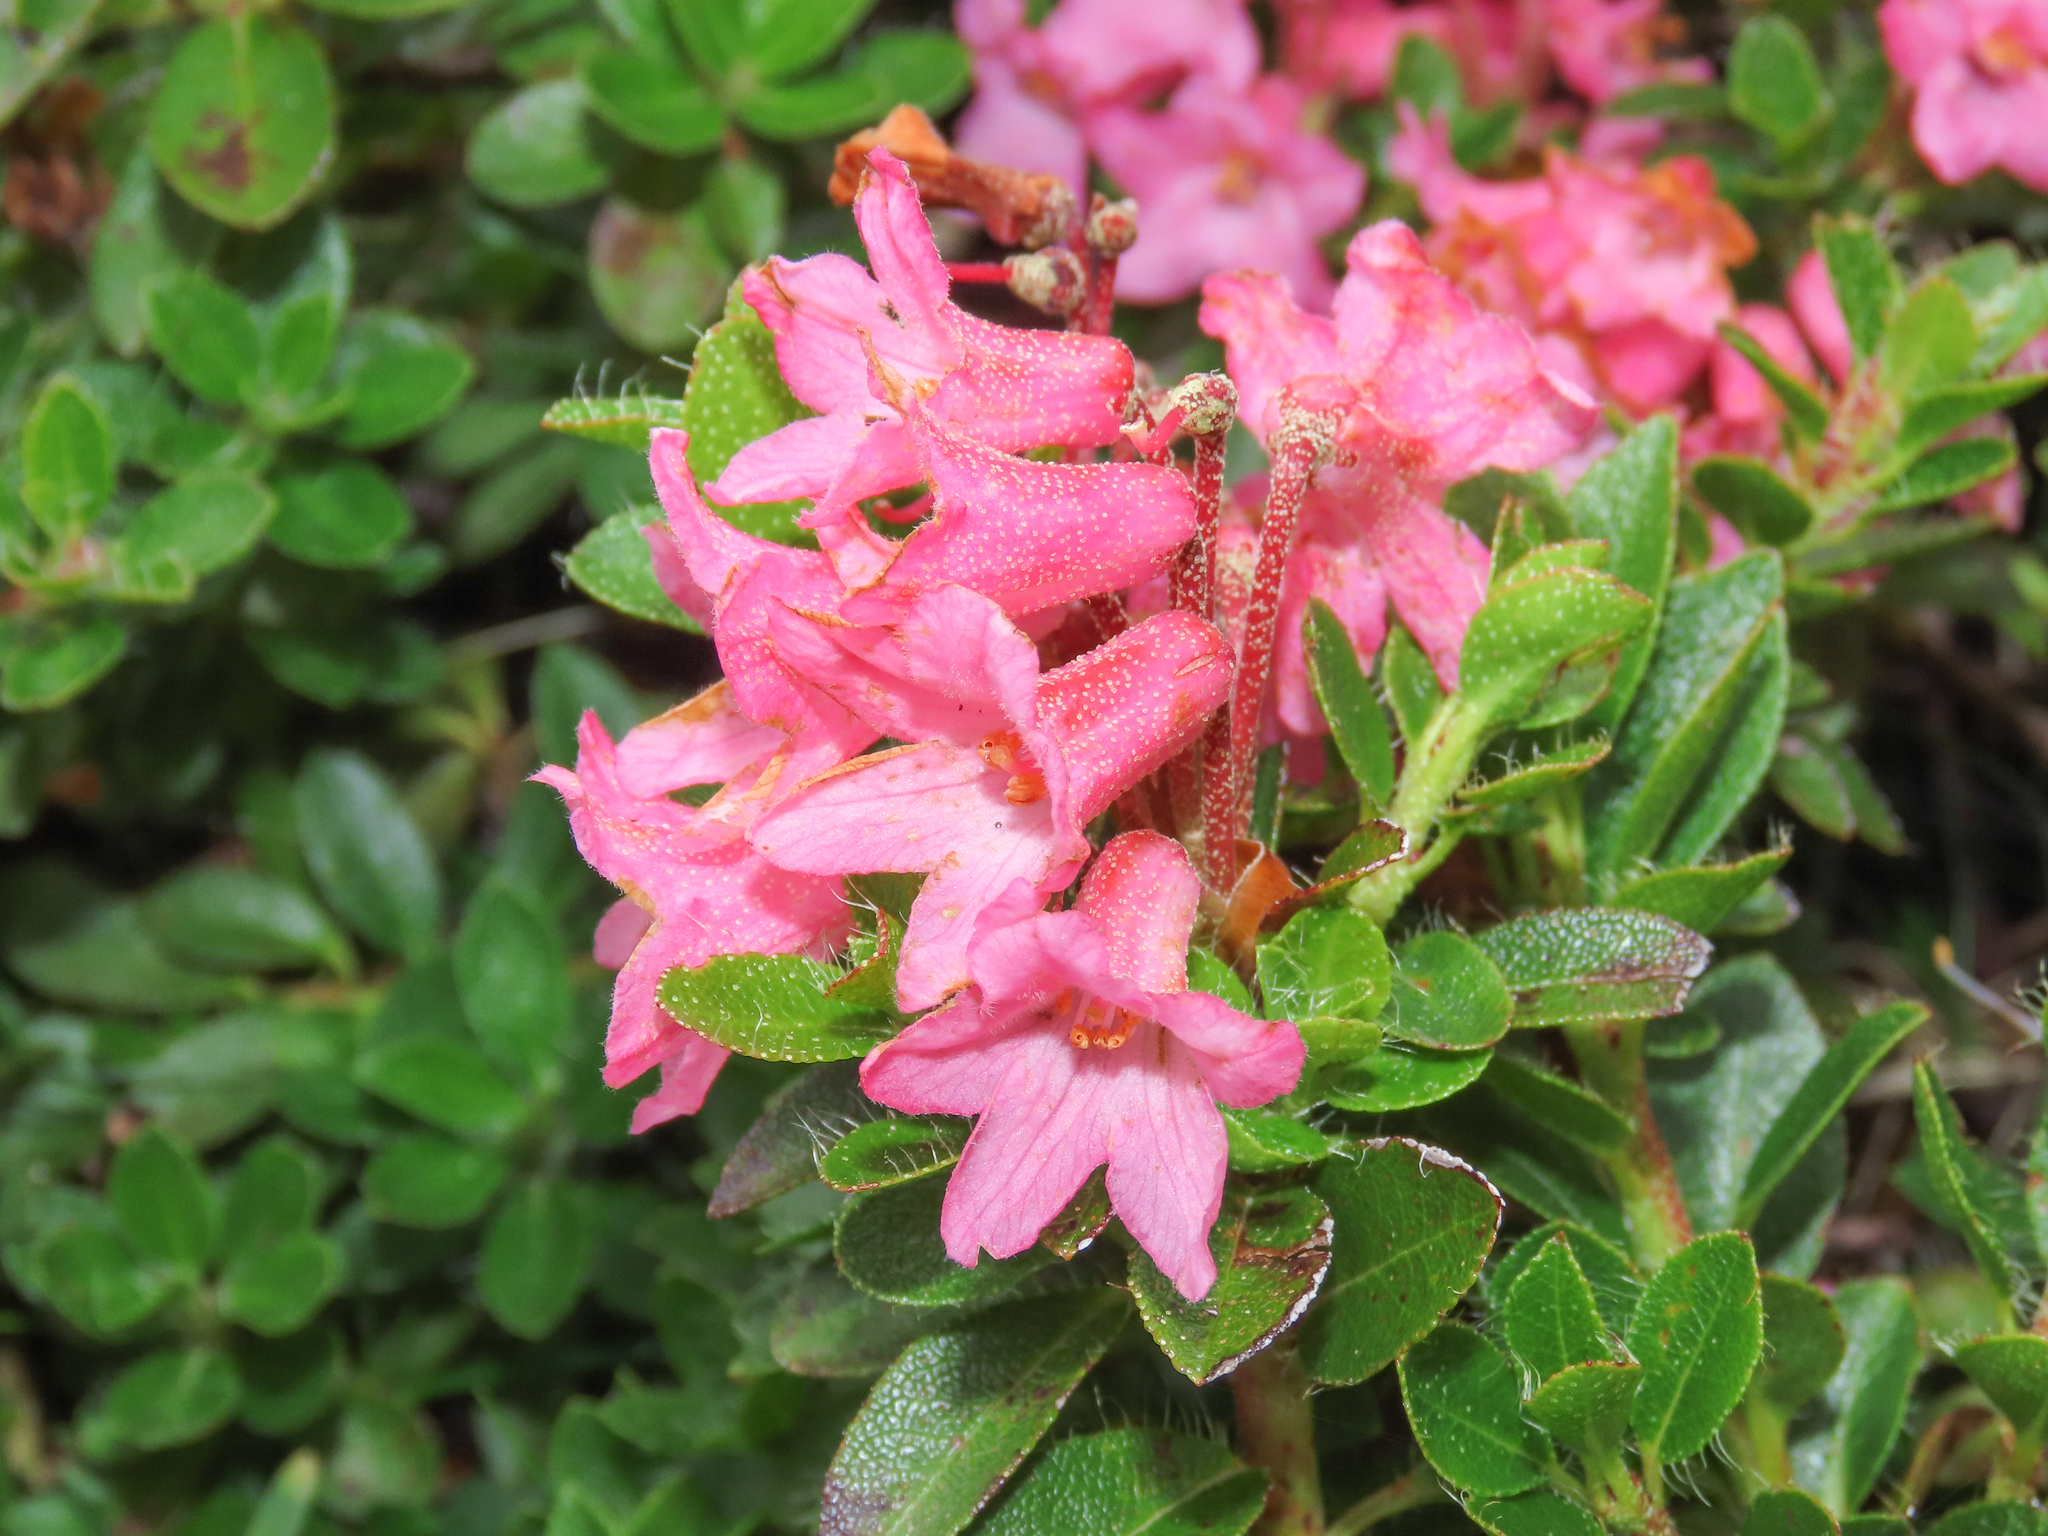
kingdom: Plantae
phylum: Tracheophyta
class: Magnoliopsida
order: Ericales
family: Ericaceae
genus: Rhododendron
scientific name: Rhododendron hirsutum
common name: Hairy alpenrose
